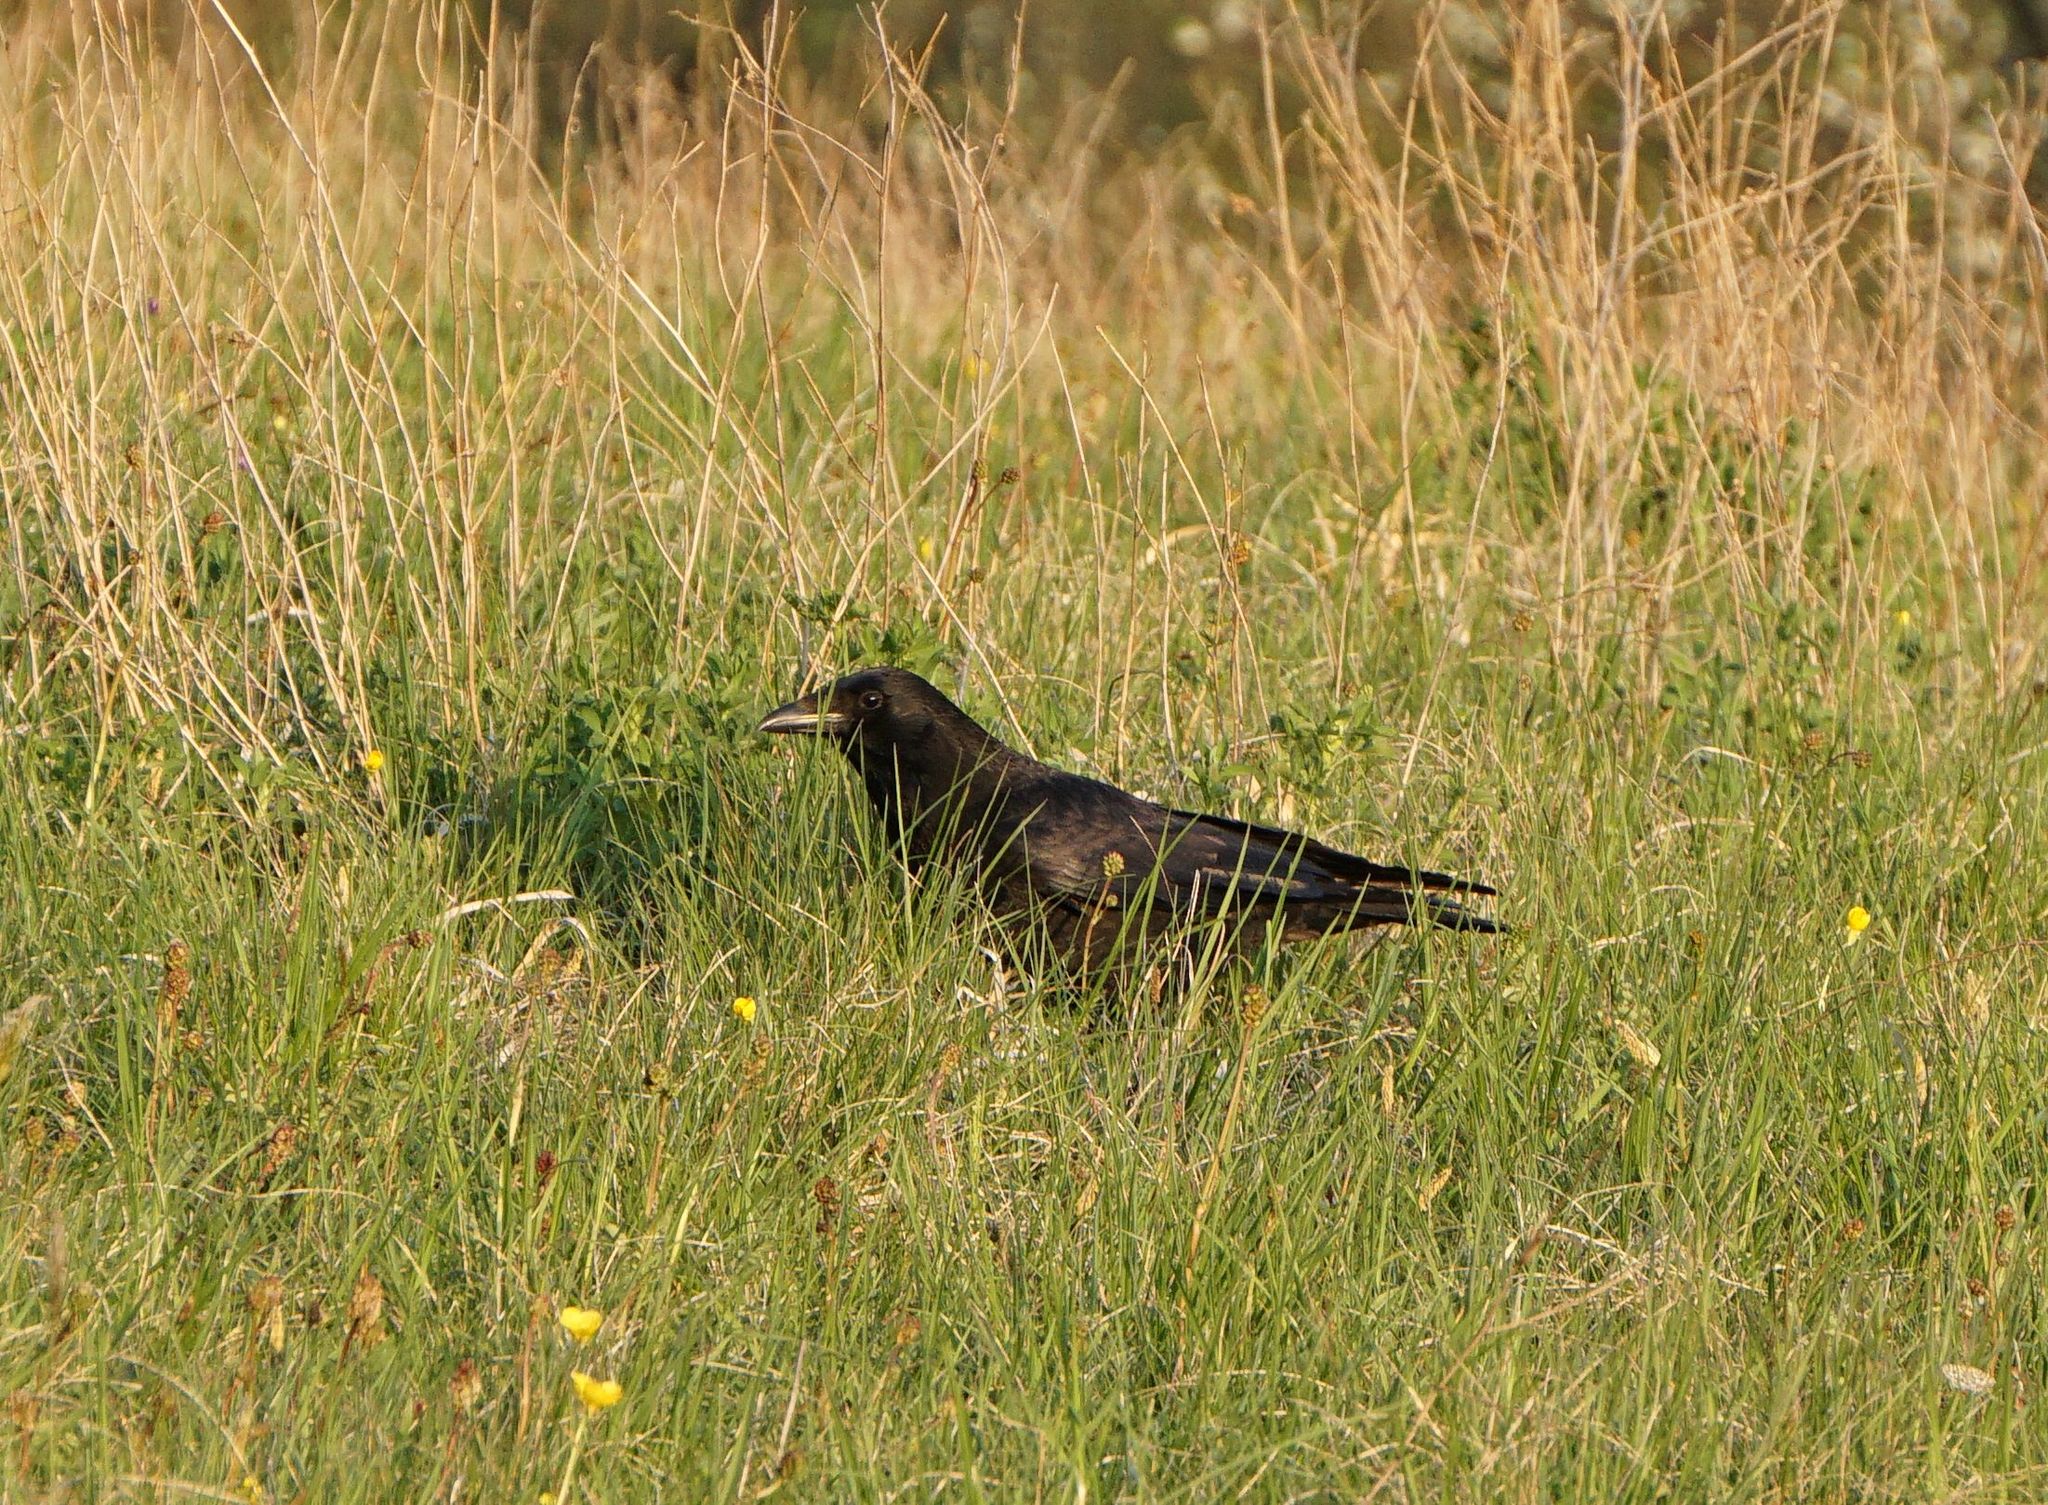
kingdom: Animalia
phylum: Chordata
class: Aves
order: Passeriformes
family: Corvidae
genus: Corvus
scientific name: Corvus corone
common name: Carrion crow
